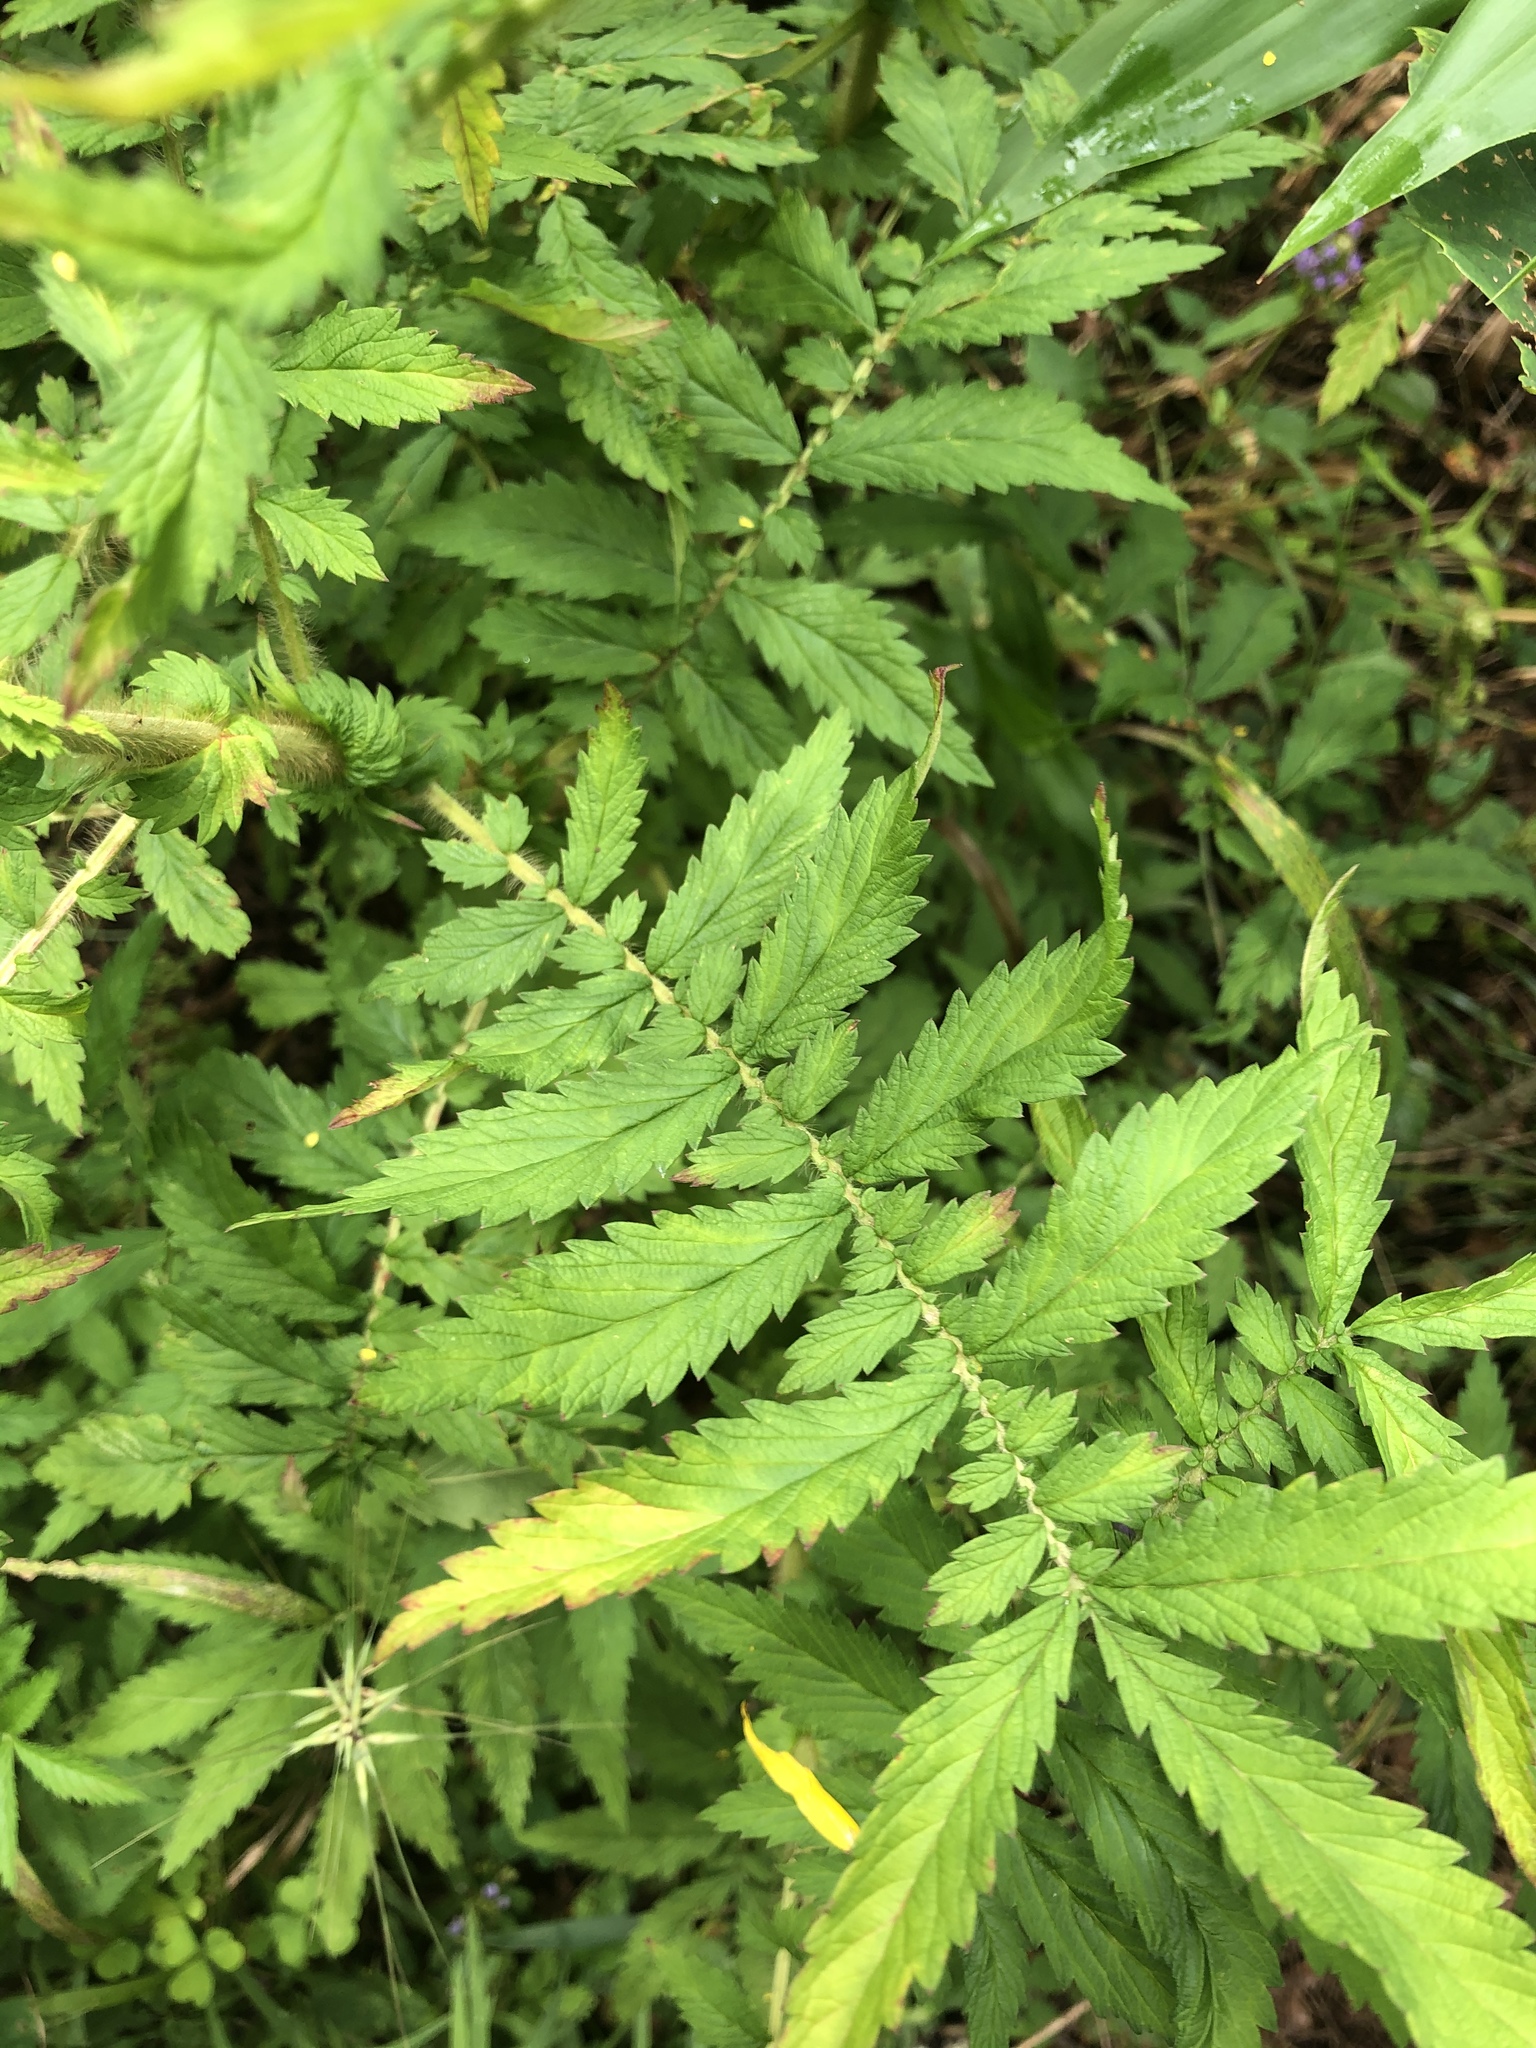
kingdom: Plantae
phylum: Tracheophyta
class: Magnoliopsida
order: Rosales
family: Rosaceae
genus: Agrimonia
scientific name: Agrimonia parviflora
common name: Harvest-lice
